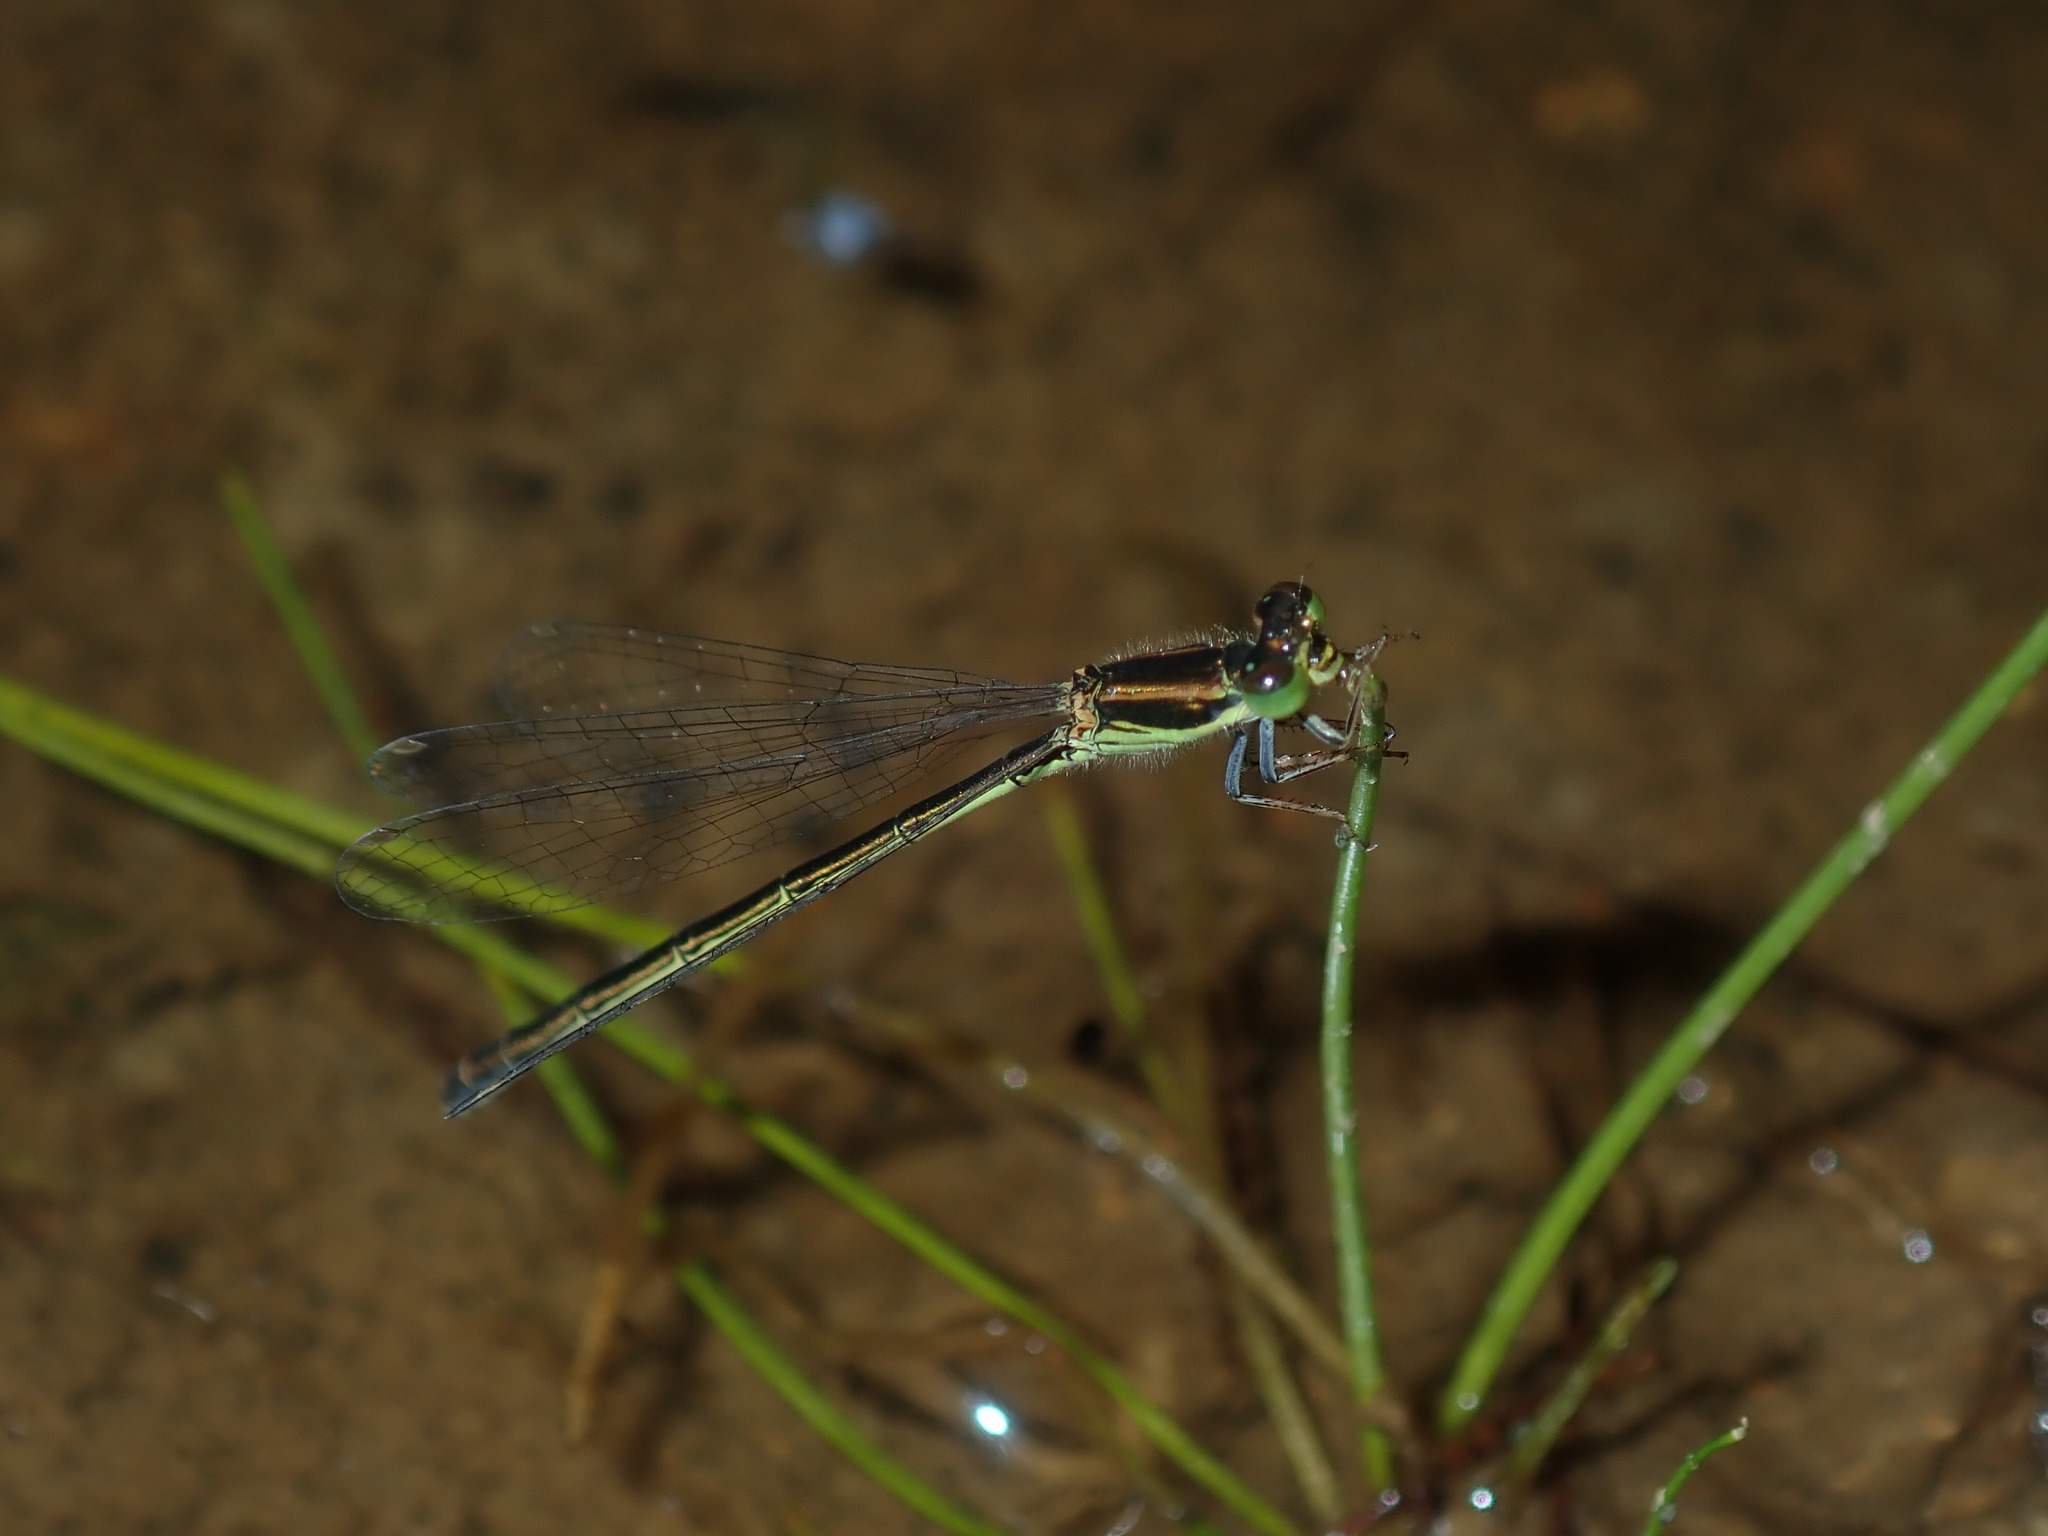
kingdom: Animalia
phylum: Arthropoda
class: Insecta
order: Odonata
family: Coenagrionidae
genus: Ischnura
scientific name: Ischnura aurora
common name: Gossamer damselfly
